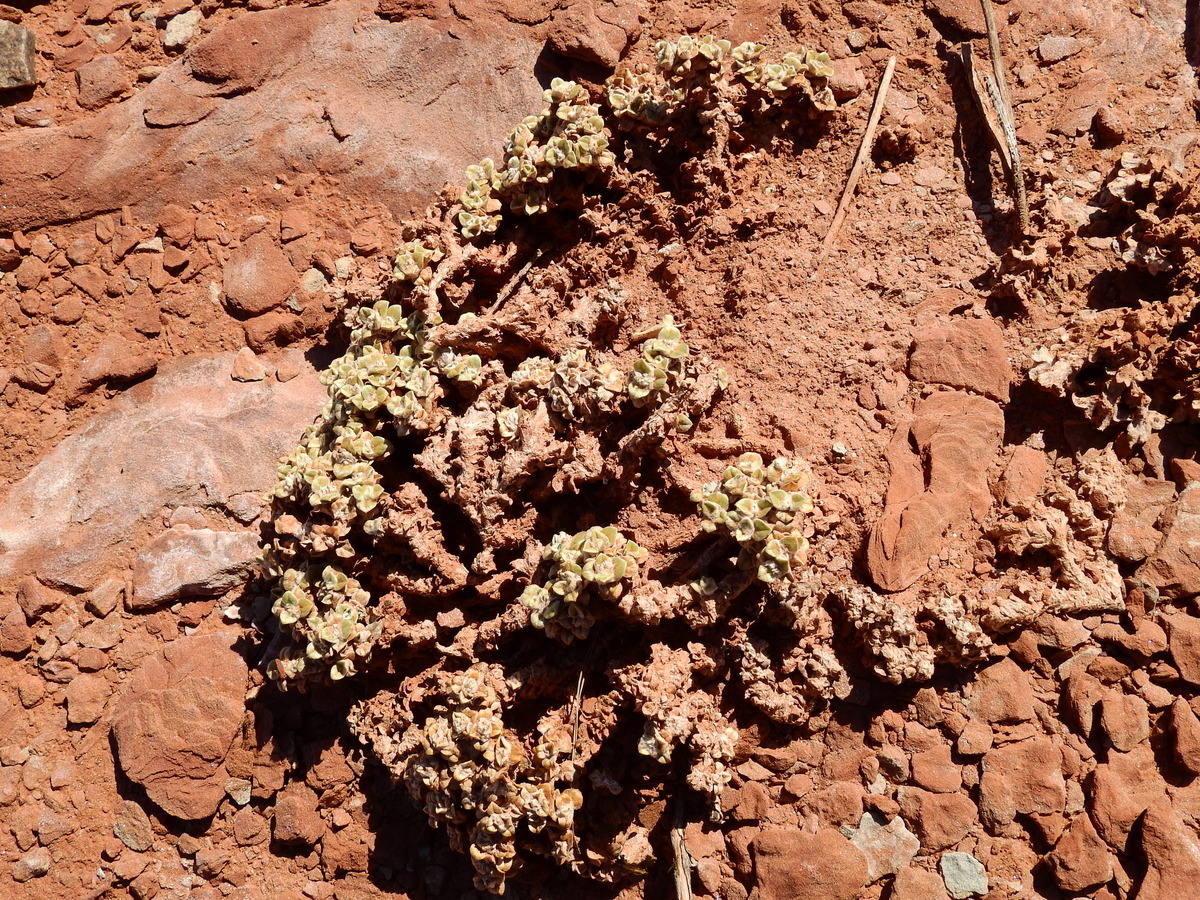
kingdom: Plantae
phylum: Tracheophyta
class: Magnoliopsida
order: Caryophyllales
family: Amaranthaceae
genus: Gomphrena
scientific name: Gomphrena colosacana
